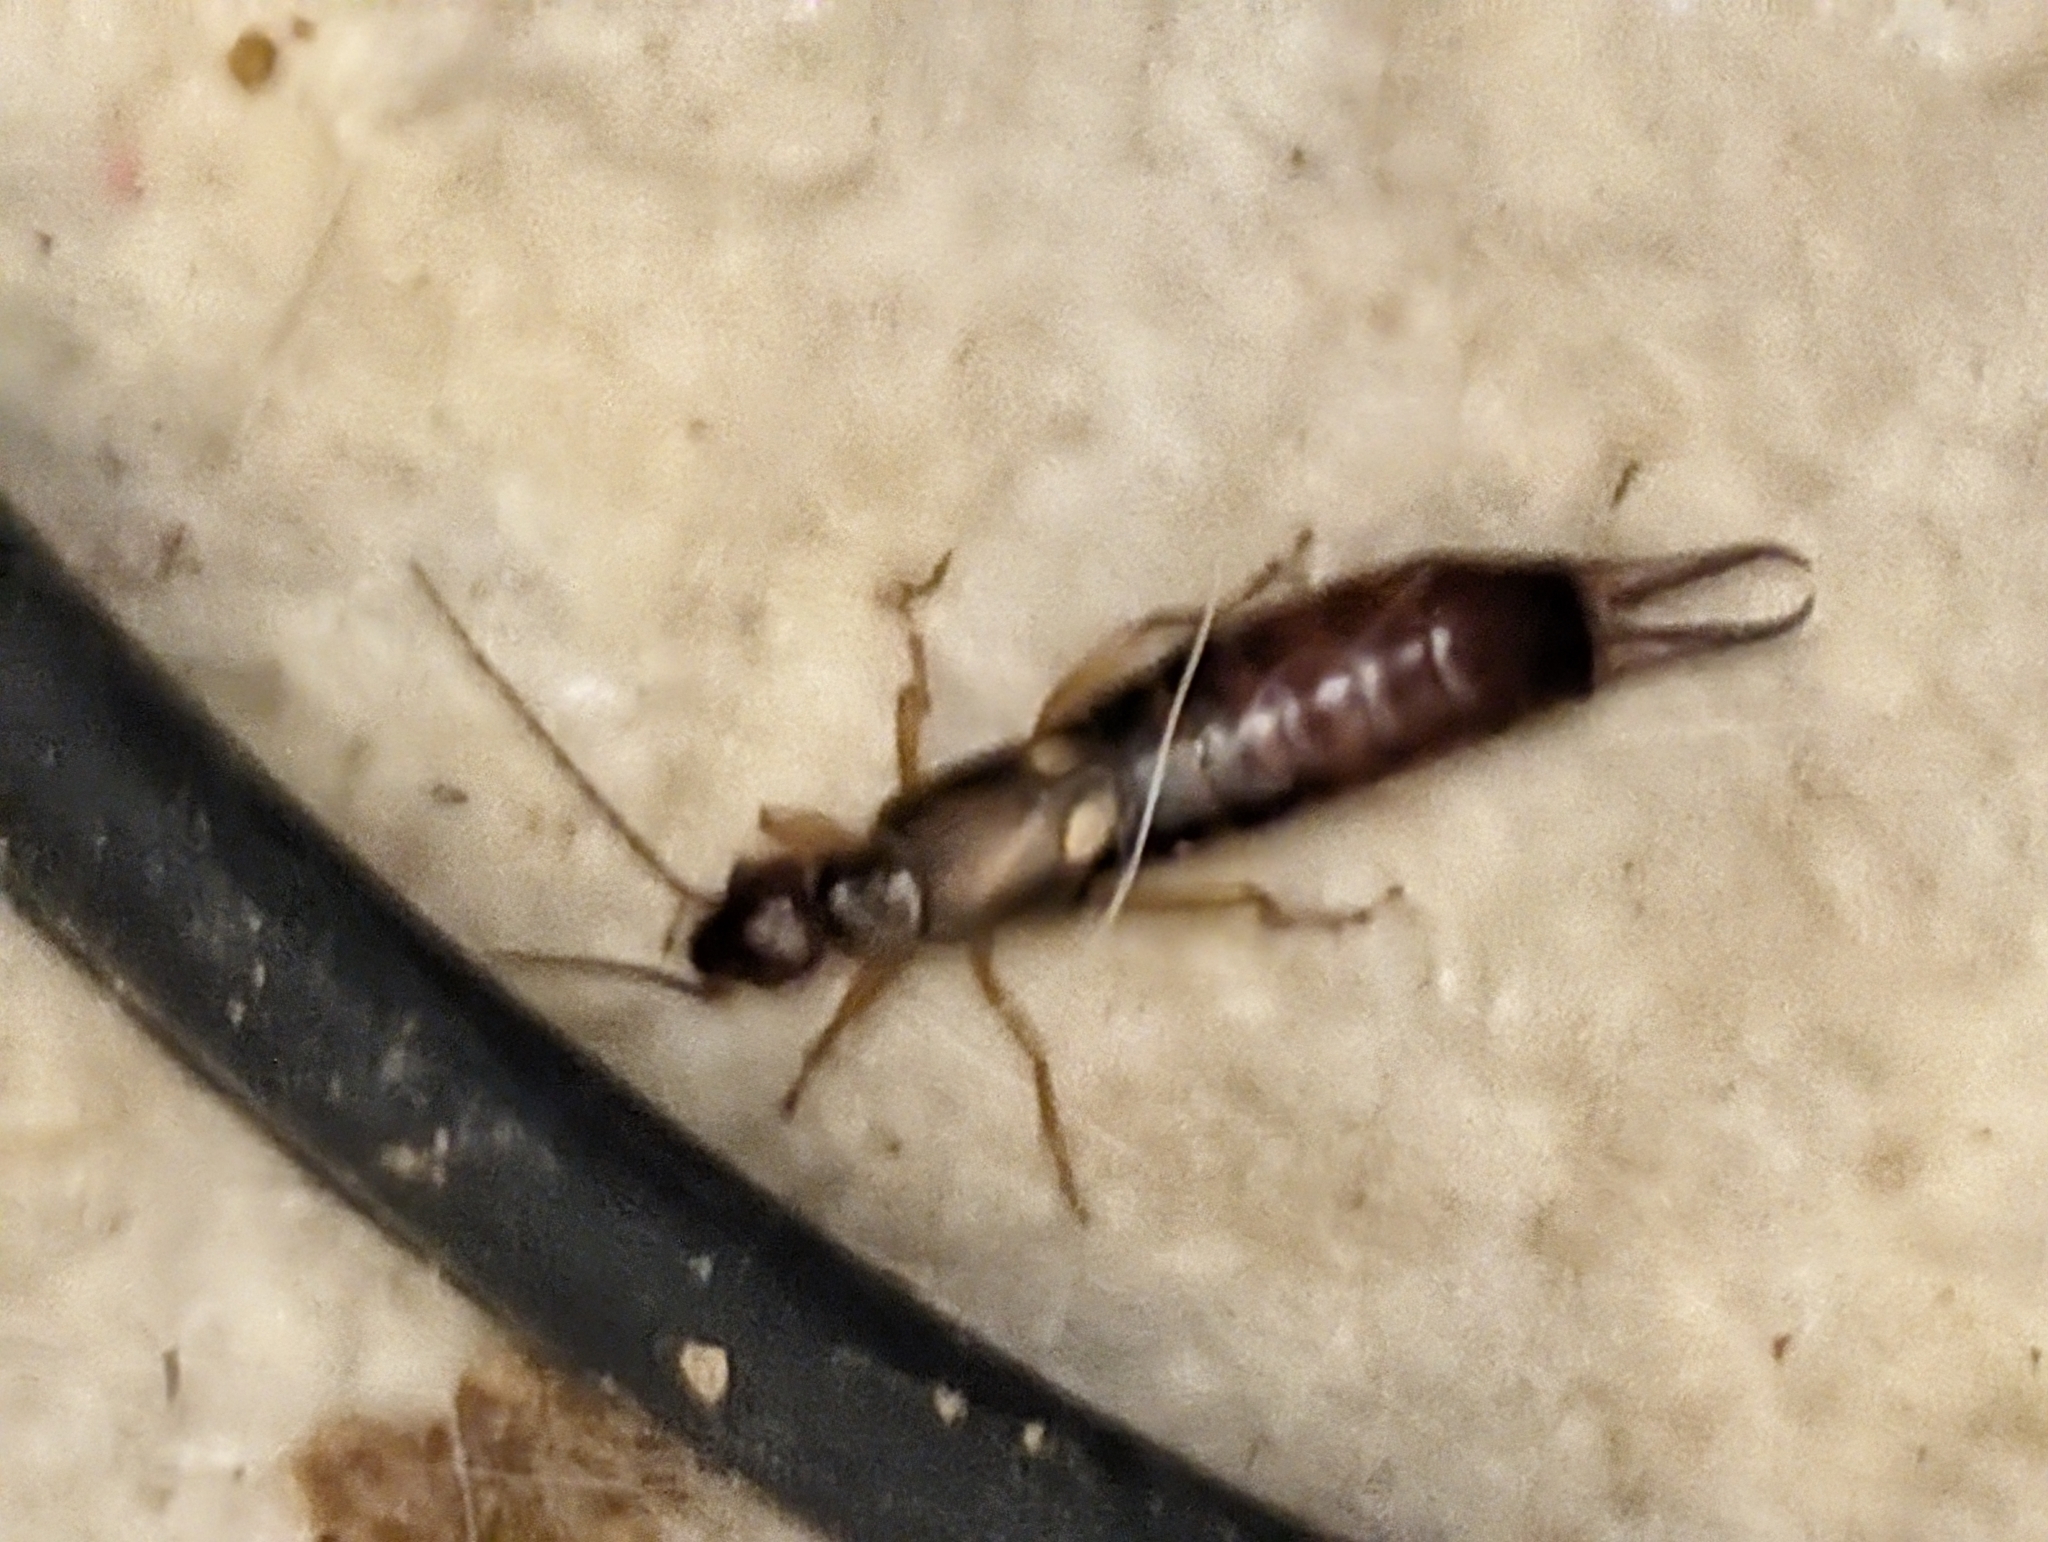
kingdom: Animalia
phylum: Arthropoda
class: Insecta
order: Dermaptera
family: Forficulidae
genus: Forficula
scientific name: Forficula auricularia
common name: European earwig
